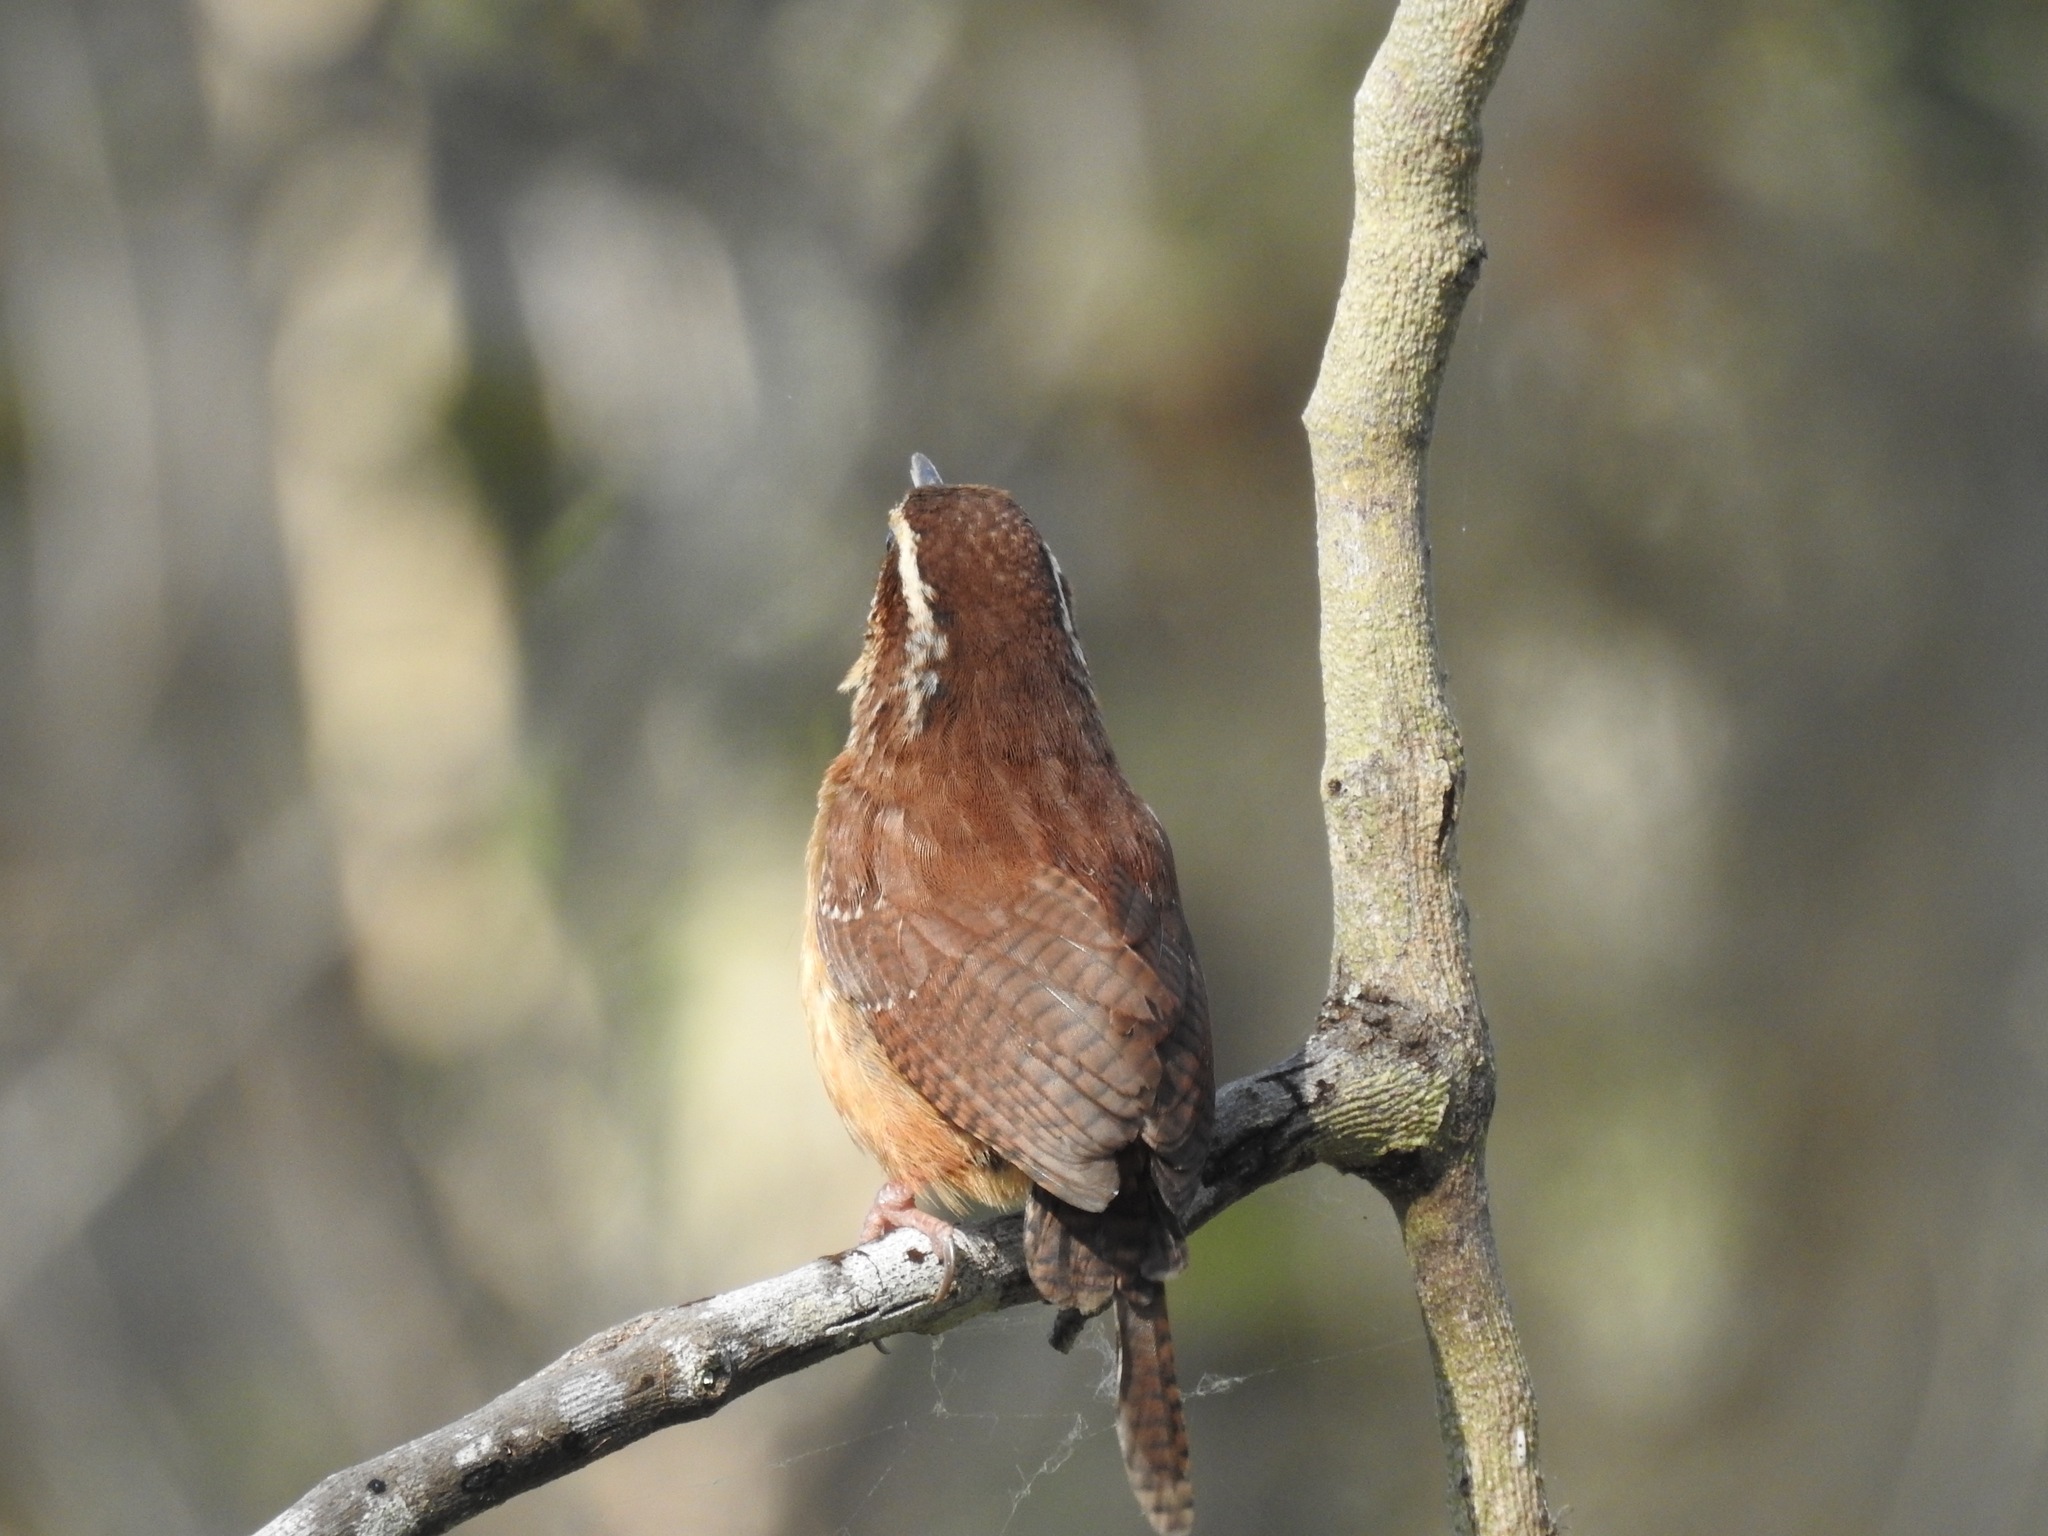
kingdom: Animalia
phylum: Chordata
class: Aves
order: Passeriformes
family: Troglodytidae
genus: Thryothorus
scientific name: Thryothorus ludovicianus
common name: Carolina wren
